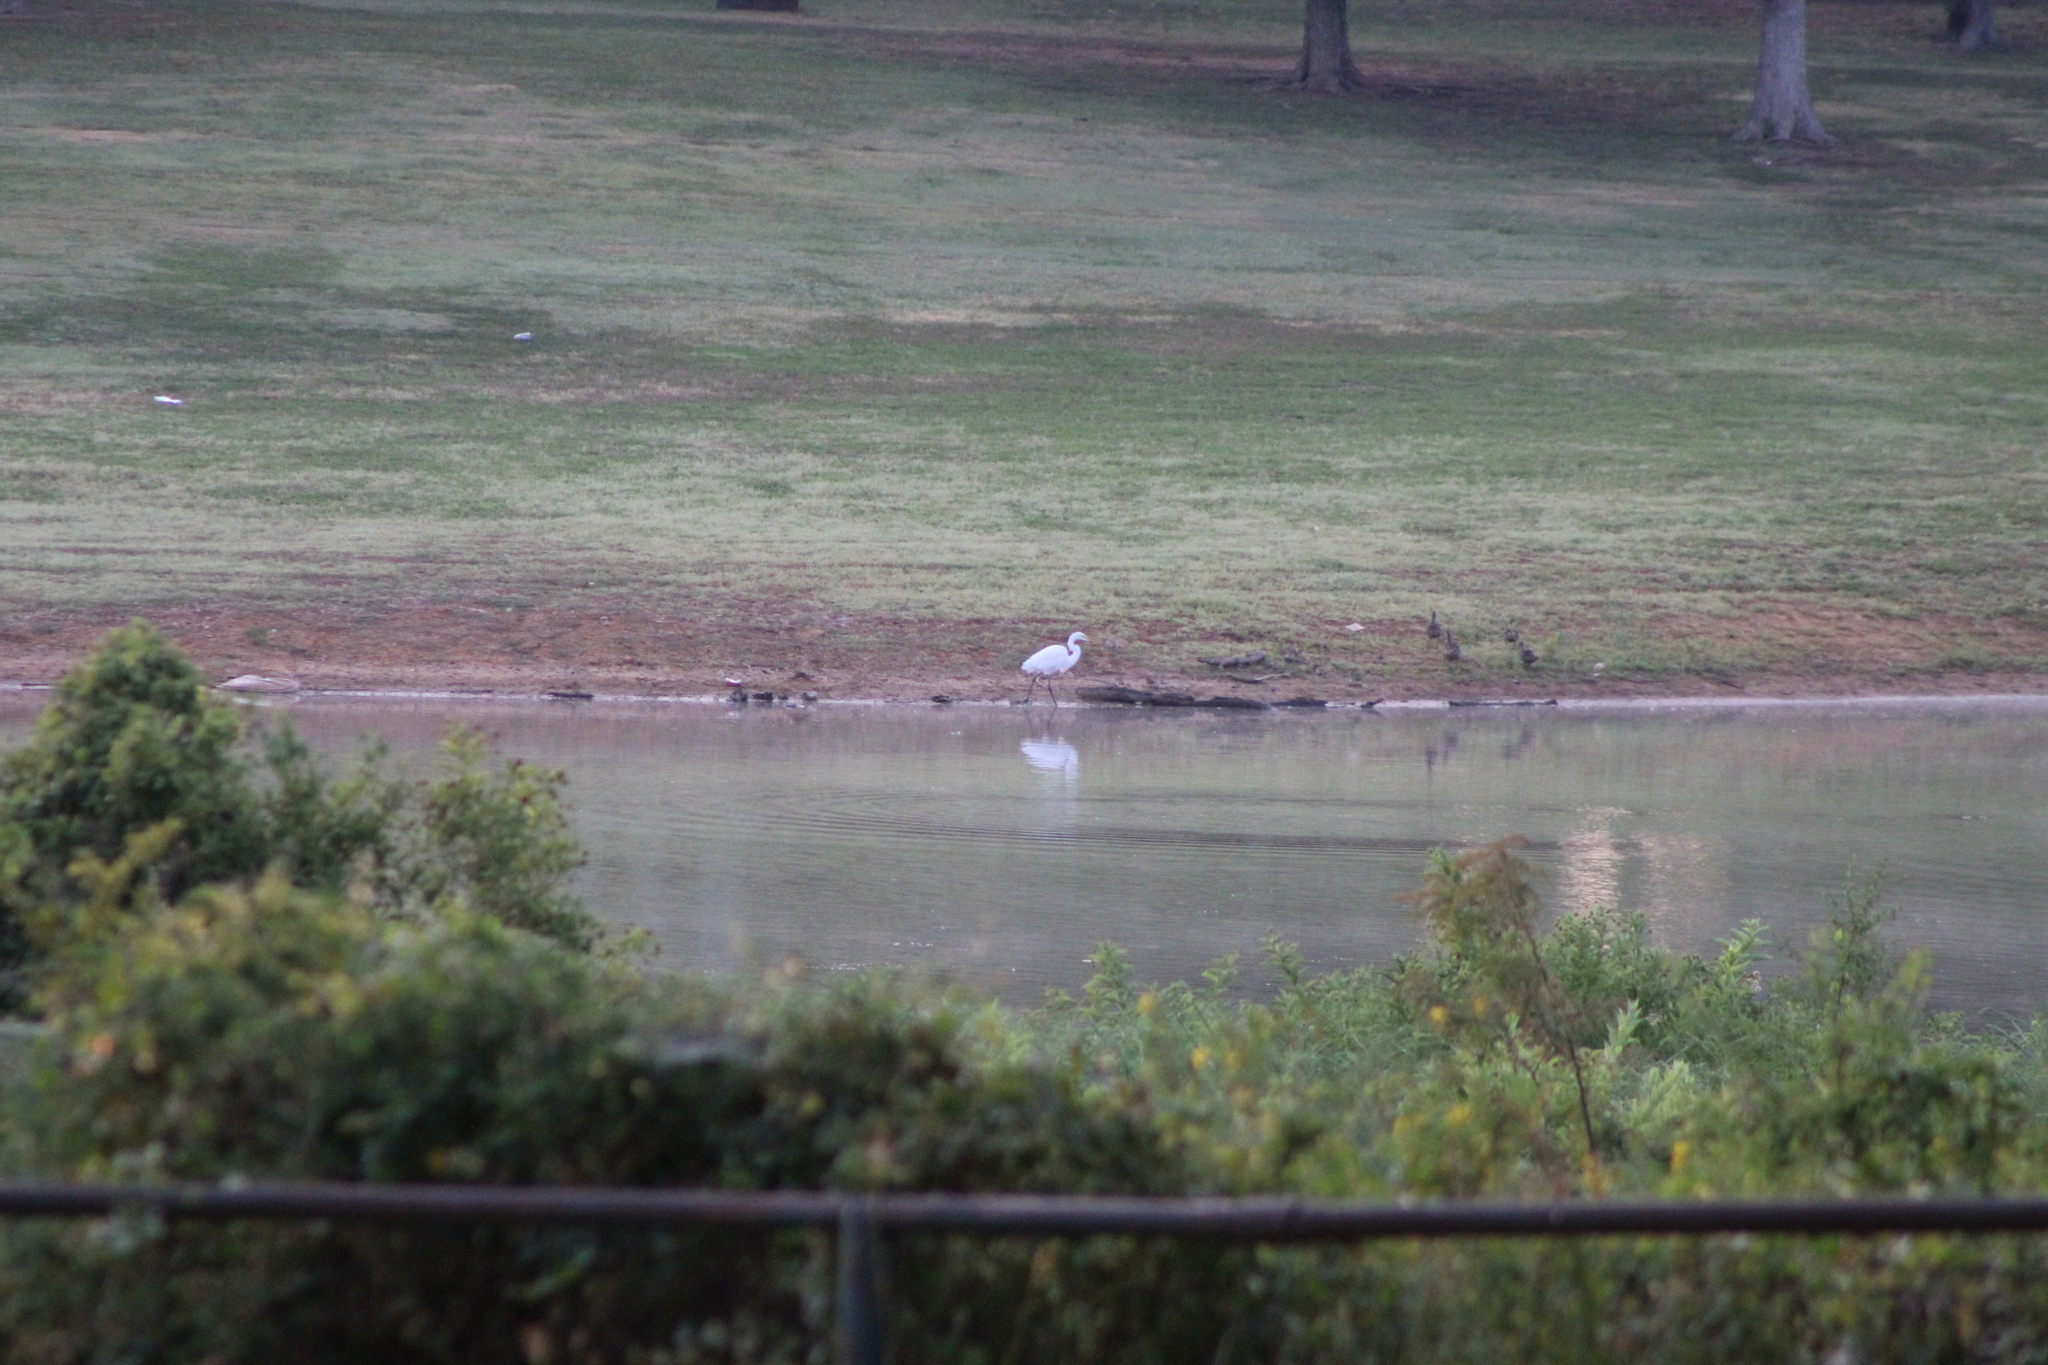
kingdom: Animalia
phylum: Chordata
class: Aves
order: Pelecaniformes
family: Ardeidae
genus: Ardea
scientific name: Ardea alba
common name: Great egret
